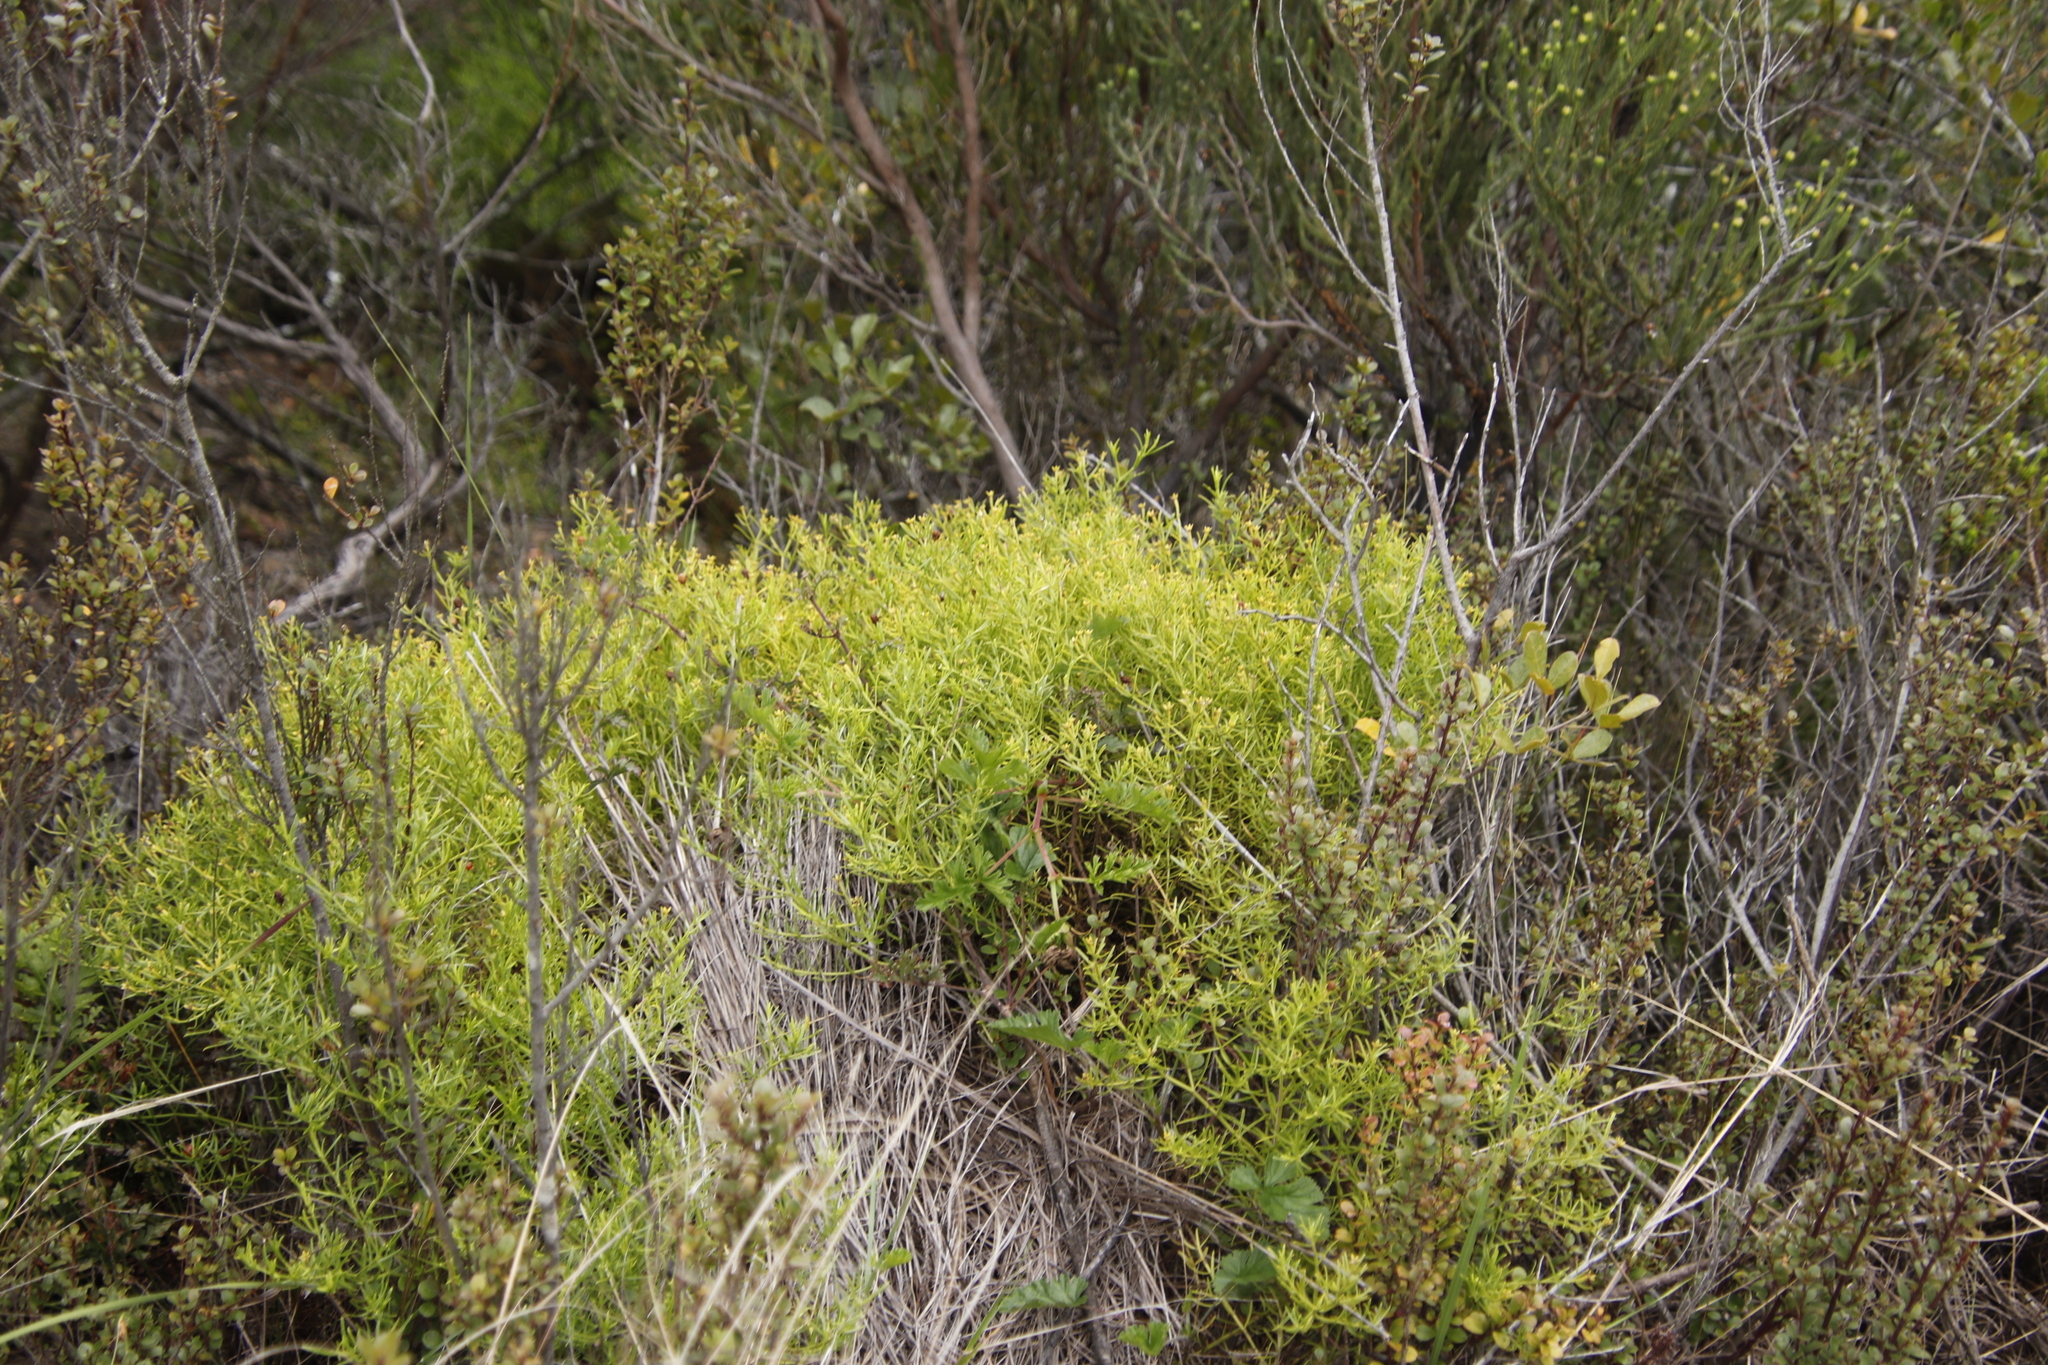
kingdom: Plantae
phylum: Tracheophyta
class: Magnoliopsida
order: Gentianales
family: Gentianaceae
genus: Chironia
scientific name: Chironia baccifera
